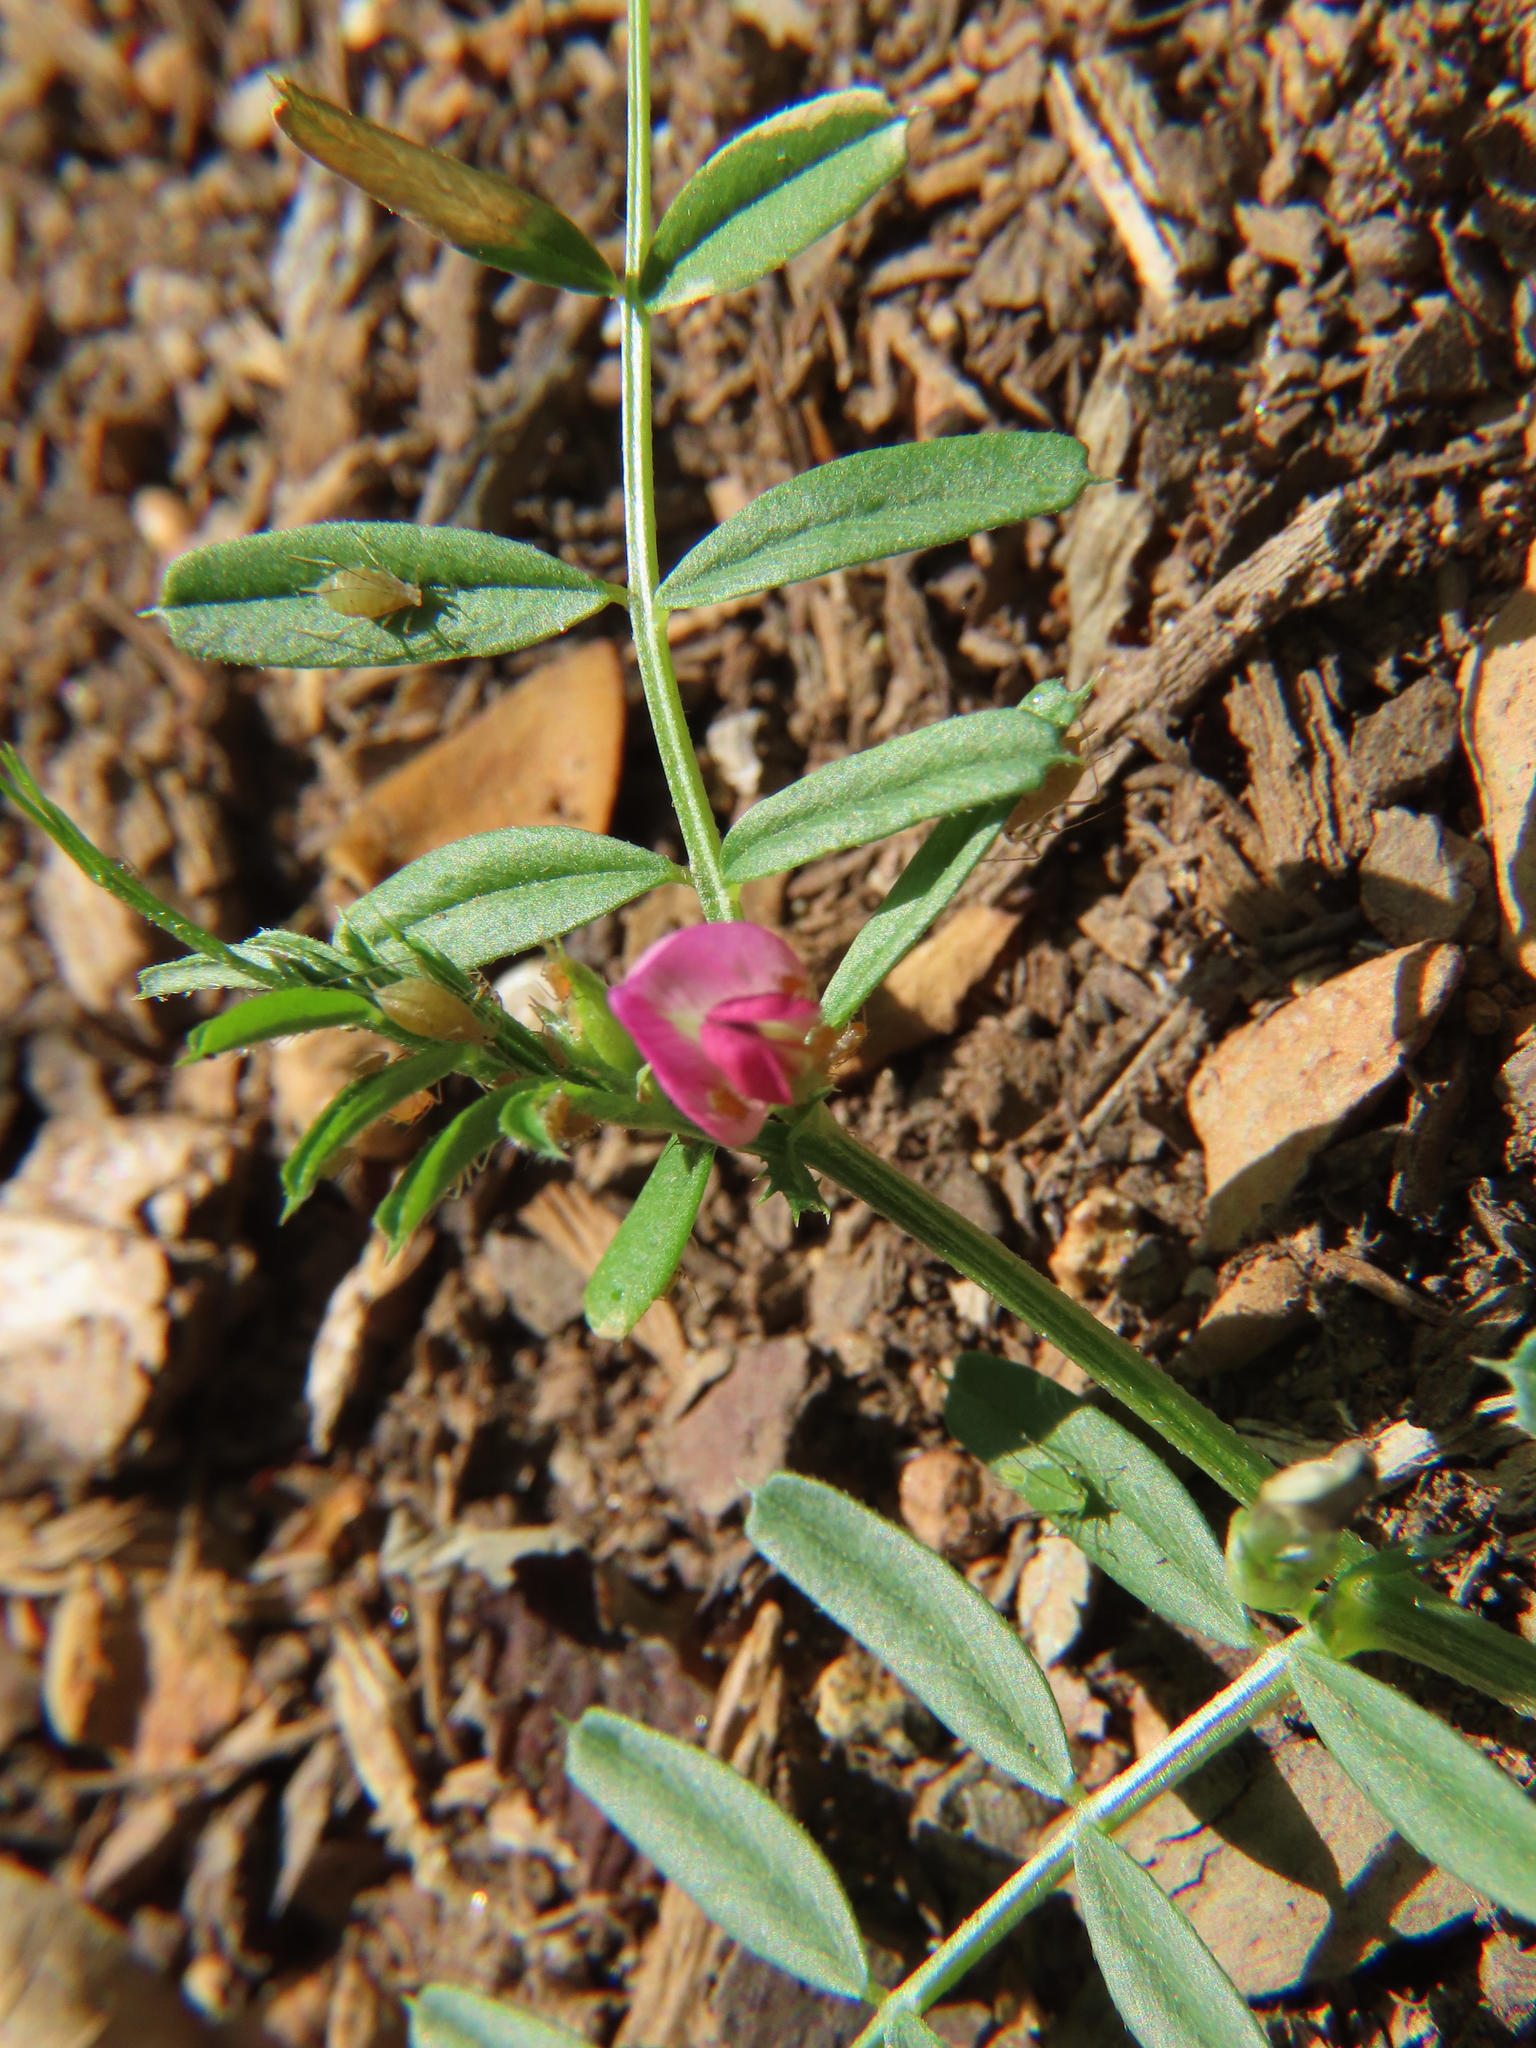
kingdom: Plantae
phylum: Tracheophyta
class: Magnoliopsida
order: Fabales
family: Fabaceae
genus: Vicia
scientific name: Vicia sativa
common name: Garden vetch
